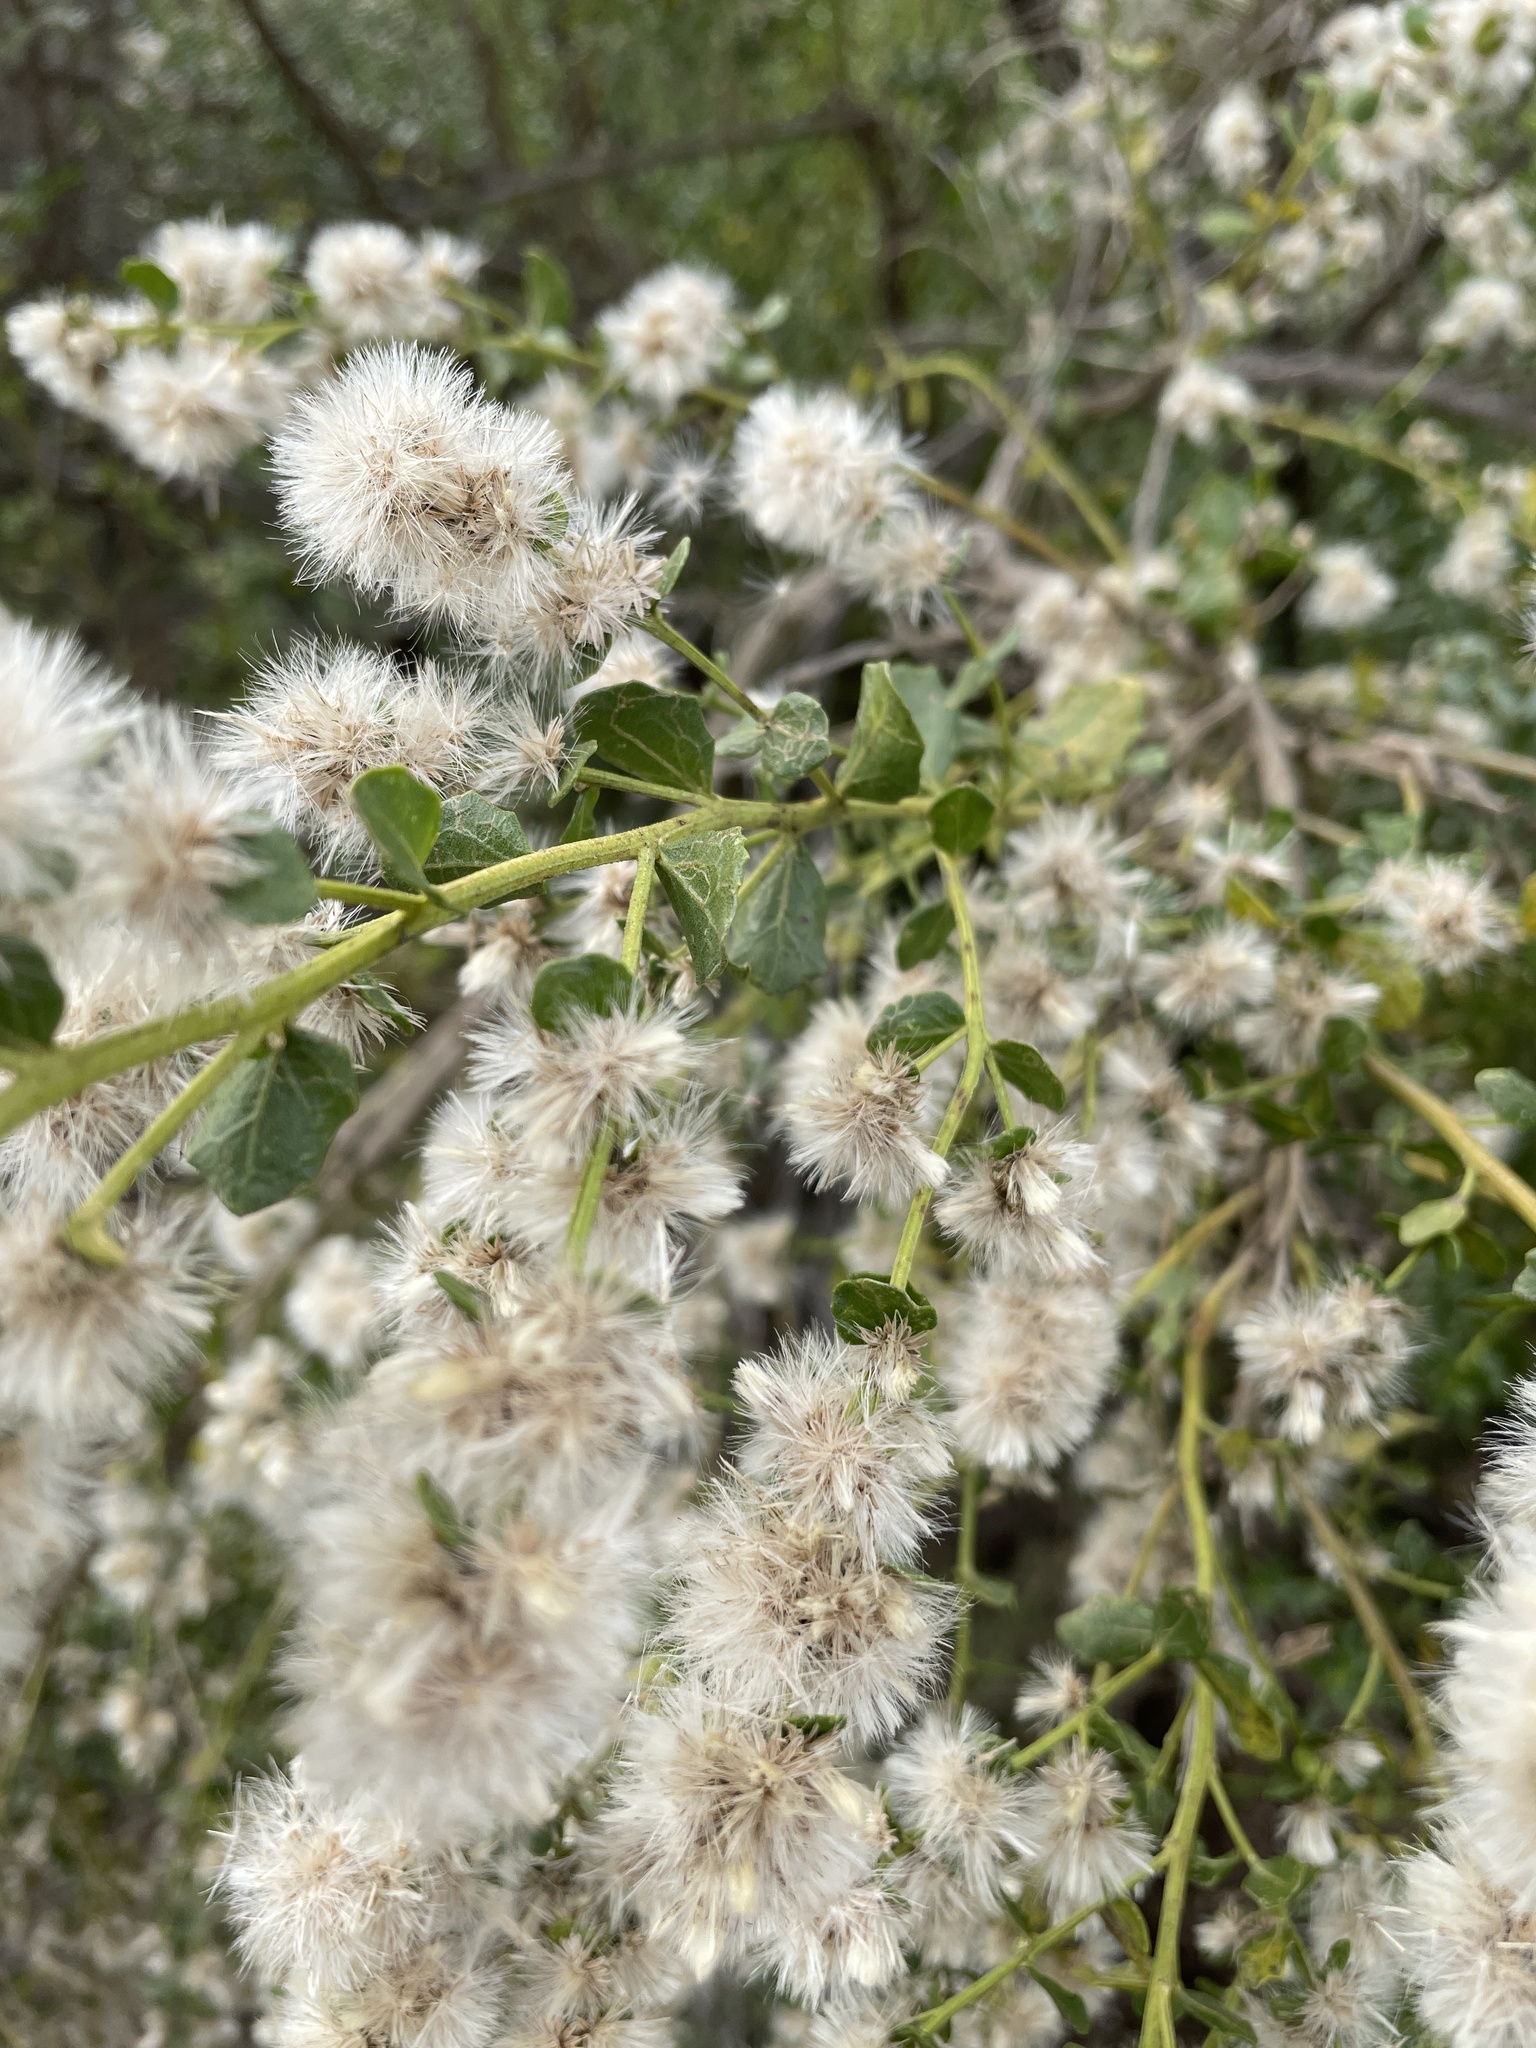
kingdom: Plantae
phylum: Tracheophyta
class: Magnoliopsida
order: Asterales
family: Asteraceae
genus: Baccharis
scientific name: Baccharis pilularis
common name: Coyotebrush
